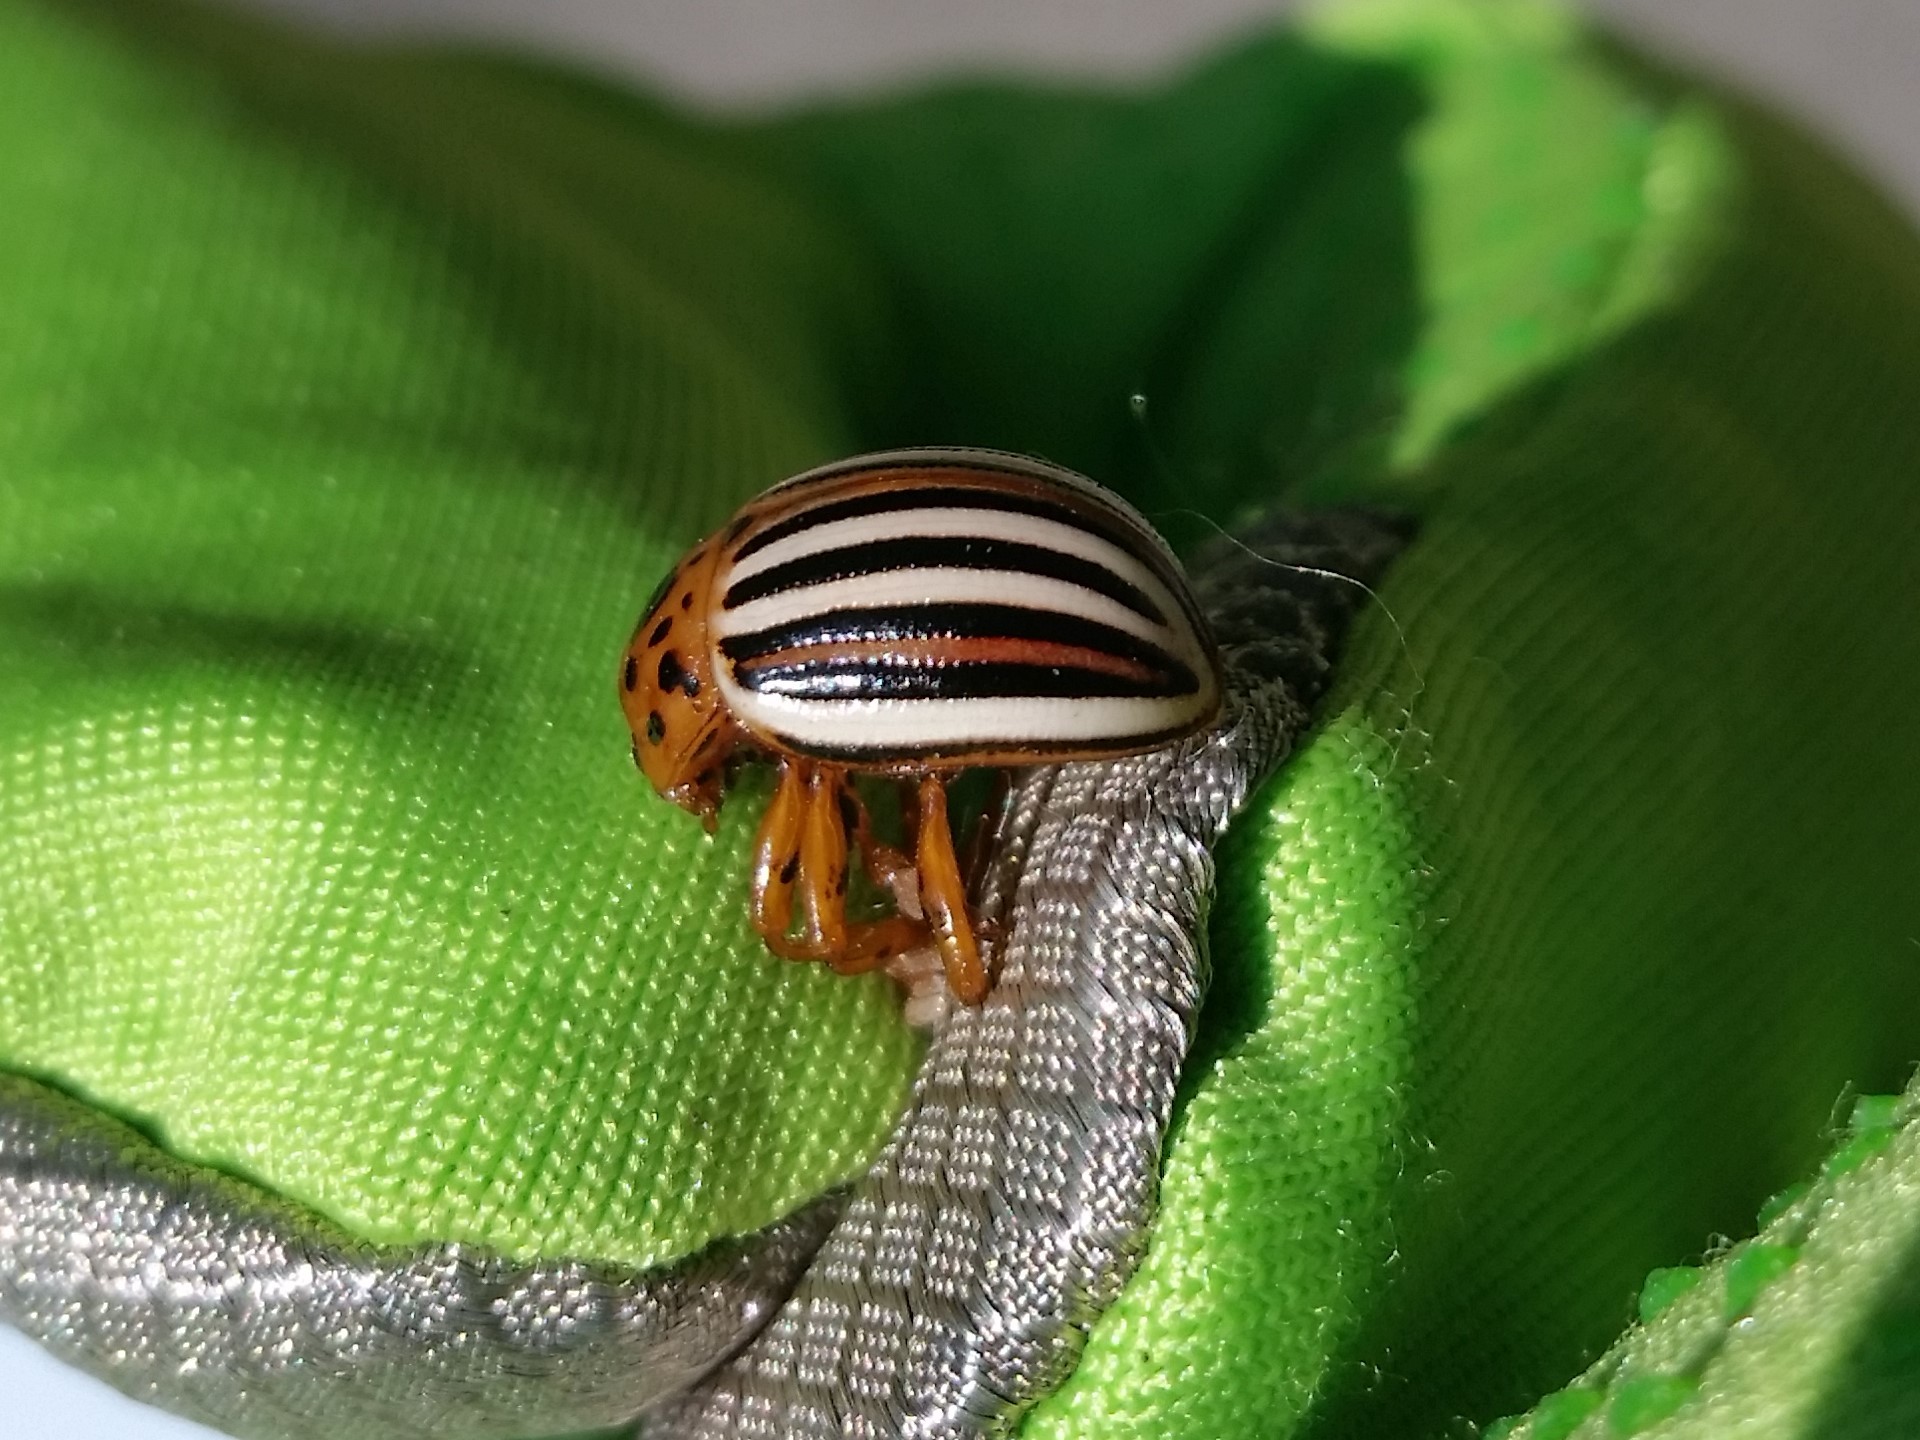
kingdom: Animalia
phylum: Arthropoda
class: Insecta
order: Coleoptera
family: Chrysomelidae
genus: Leptinotarsa
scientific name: Leptinotarsa juncta
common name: False potato beetle
